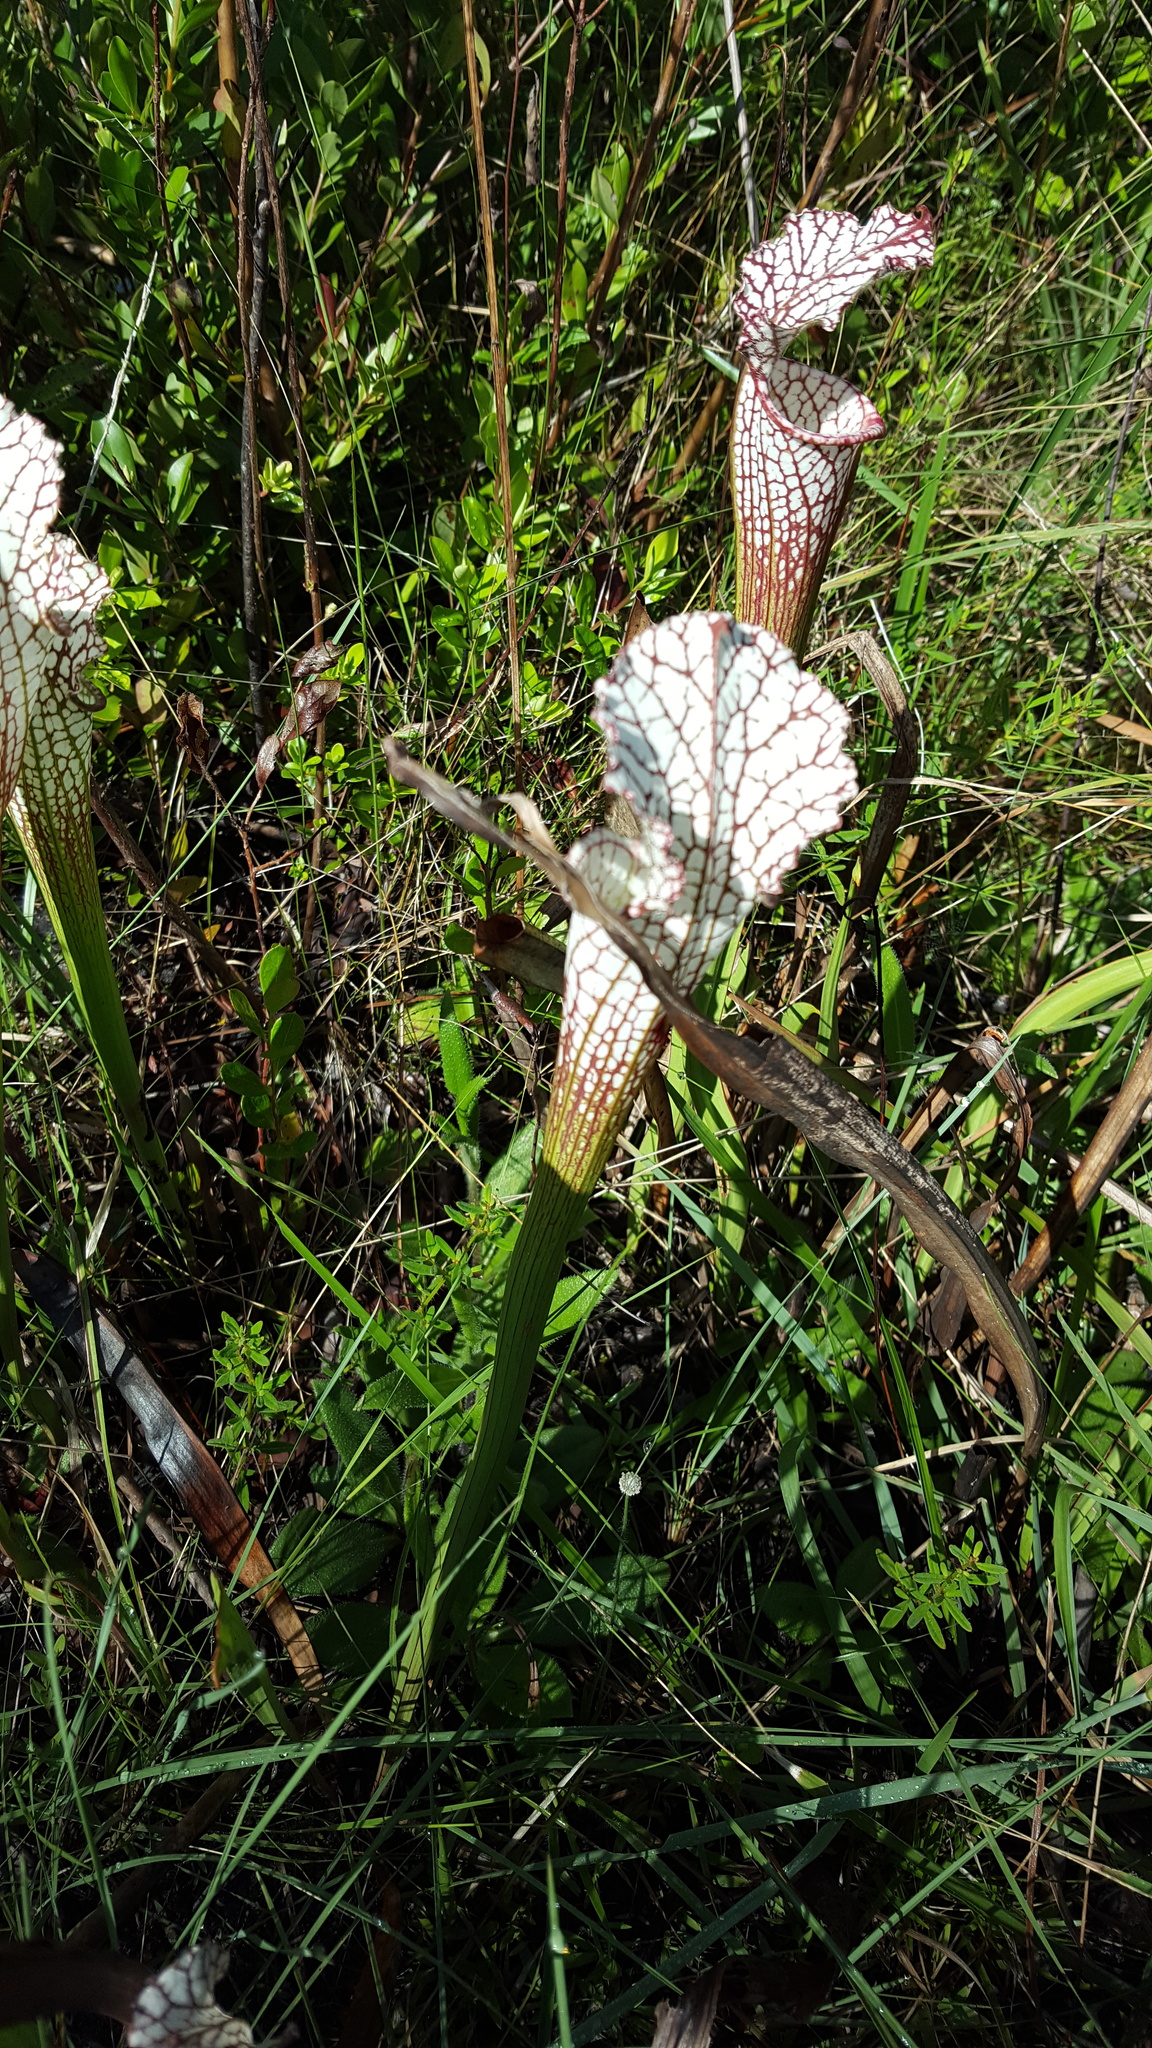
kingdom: Plantae
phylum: Tracheophyta
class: Magnoliopsida
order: Ericales
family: Sarraceniaceae
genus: Sarracenia
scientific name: Sarracenia leucophylla
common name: Purple trumpetleaf
